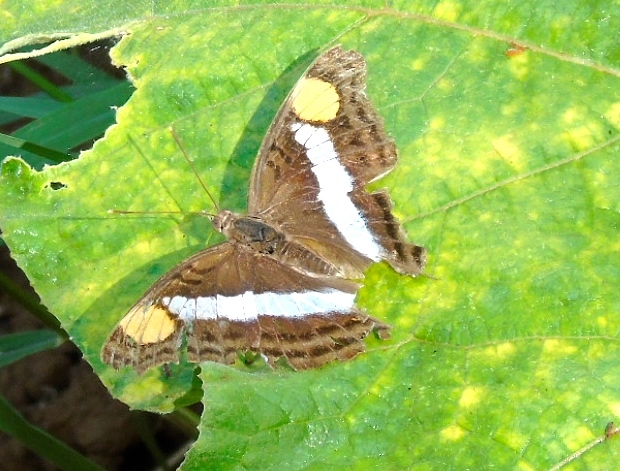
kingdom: Animalia
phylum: Arthropoda
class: Insecta
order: Lepidoptera
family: Nymphalidae
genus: Doxocopa
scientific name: Doxocopa
